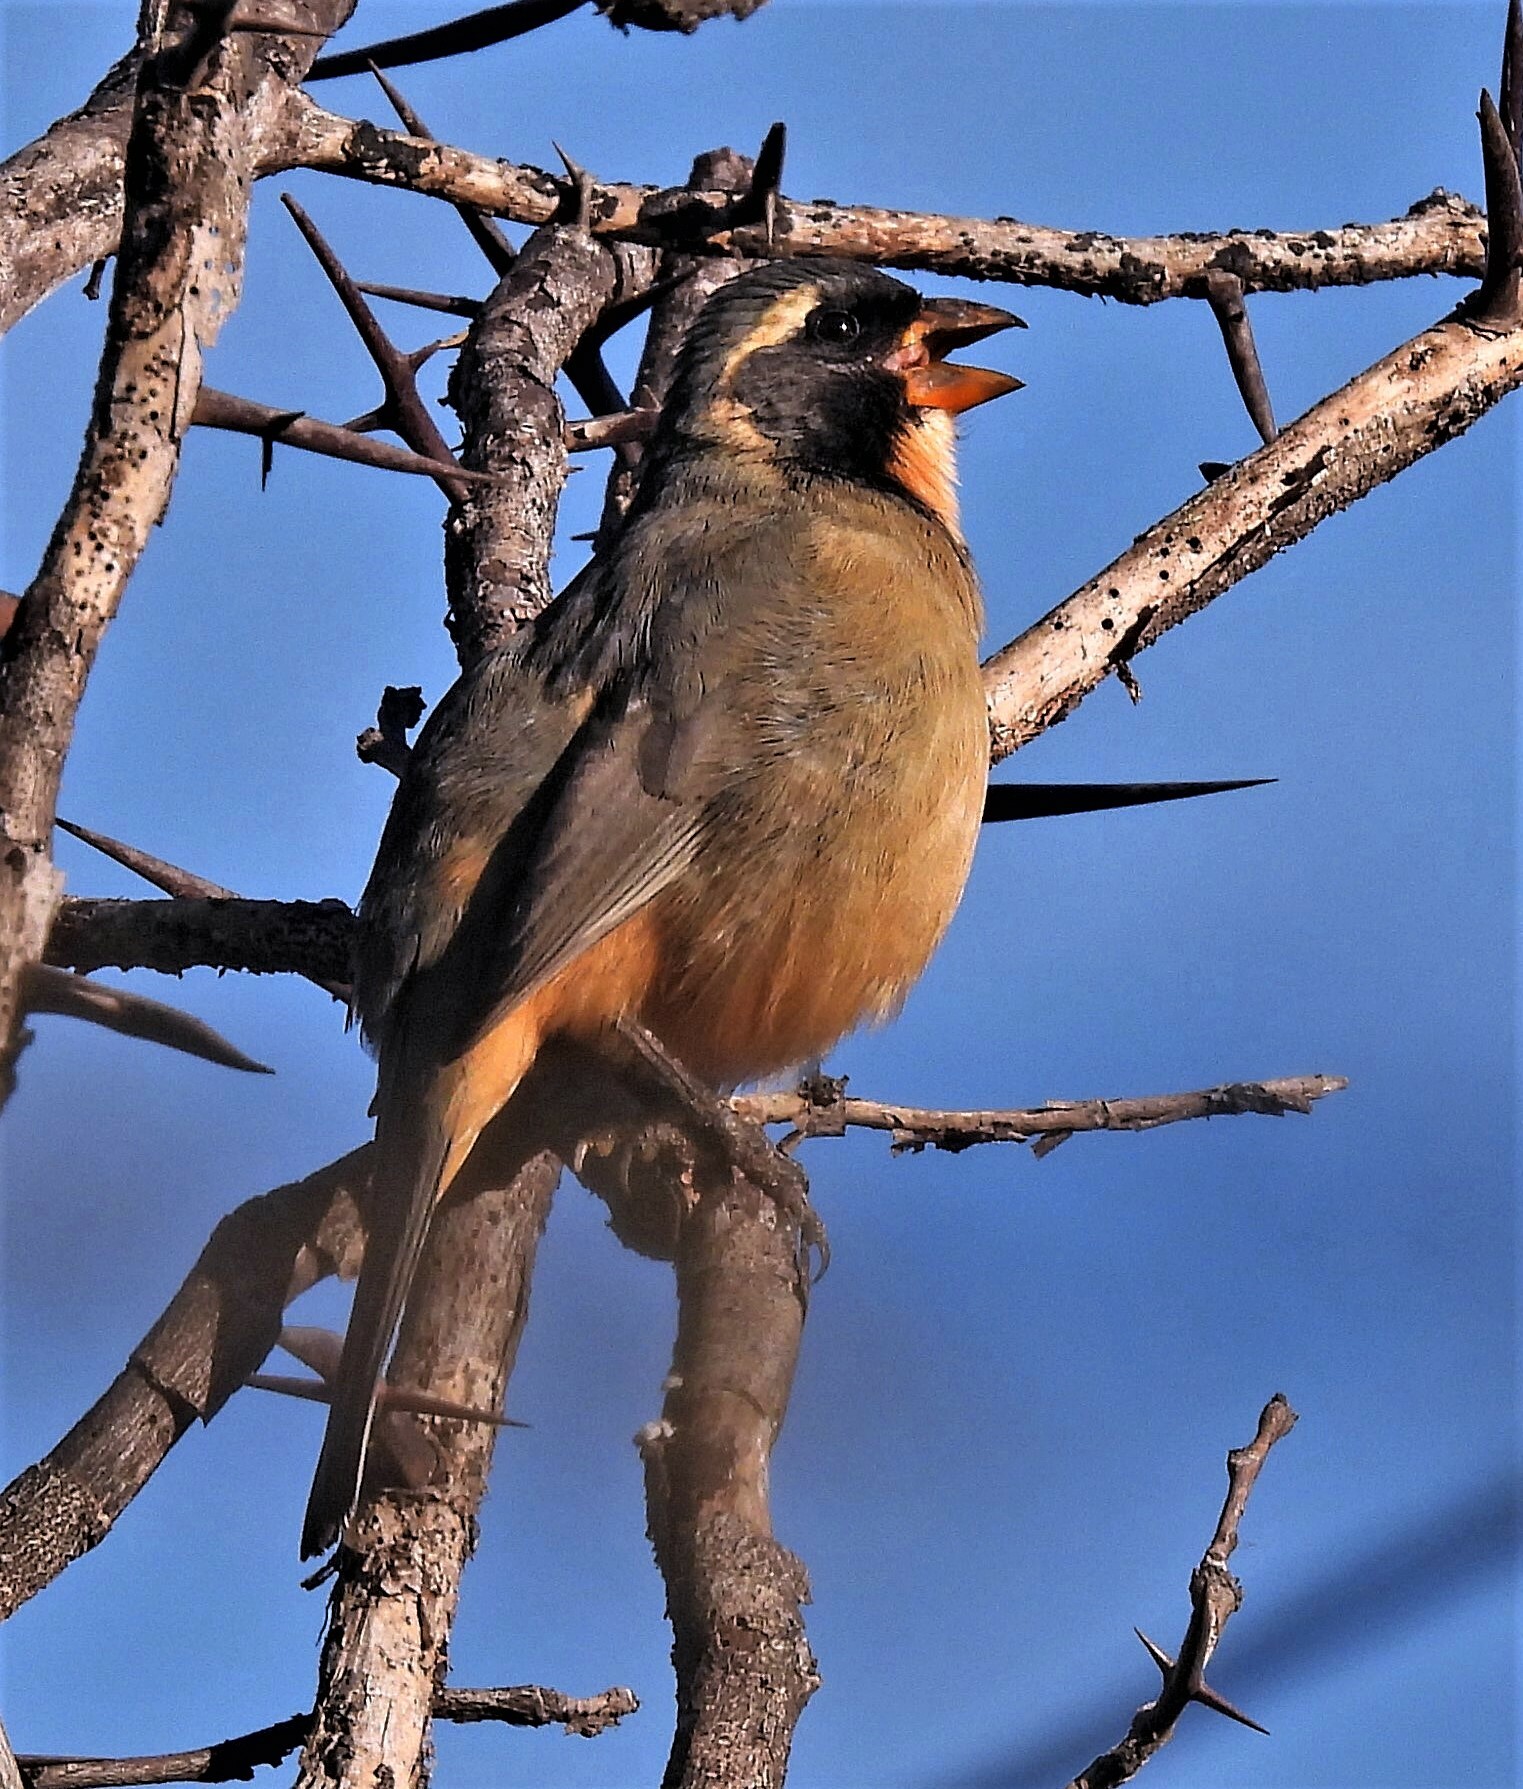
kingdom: Animalia
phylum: Chordata
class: Aves
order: Passeriformes
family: Thraupidae
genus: Saltator
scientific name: Saltator aurantiirostris
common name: Golden-billed saltator
